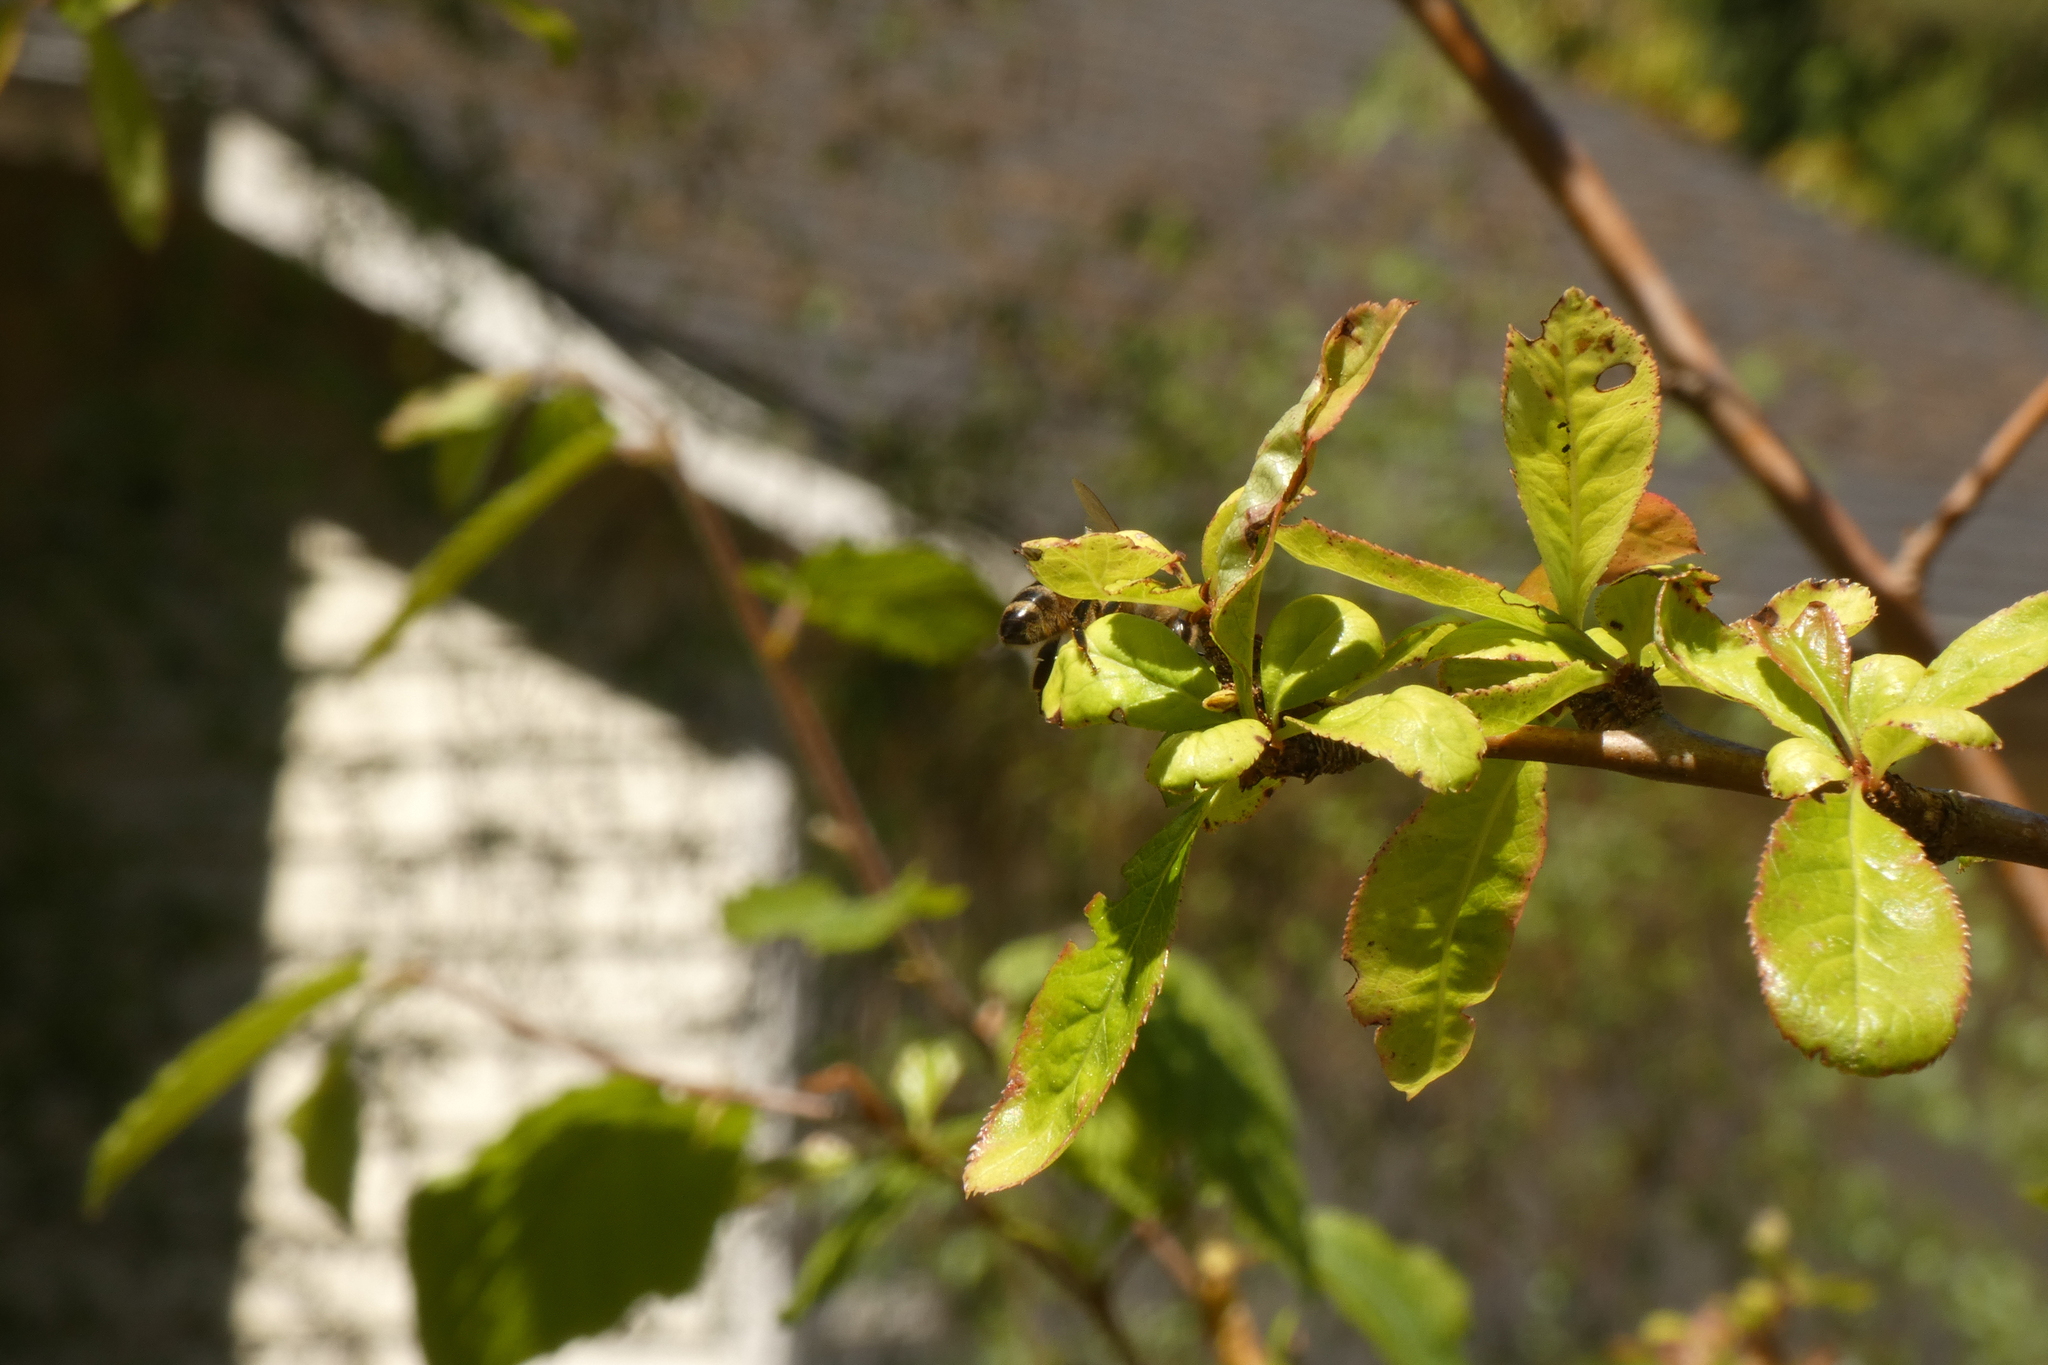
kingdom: Animalia
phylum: Arthropoda
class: Insecta
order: Hymenoptera
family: Apidae
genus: Apis
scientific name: Apis mellifera
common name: Honey bee
